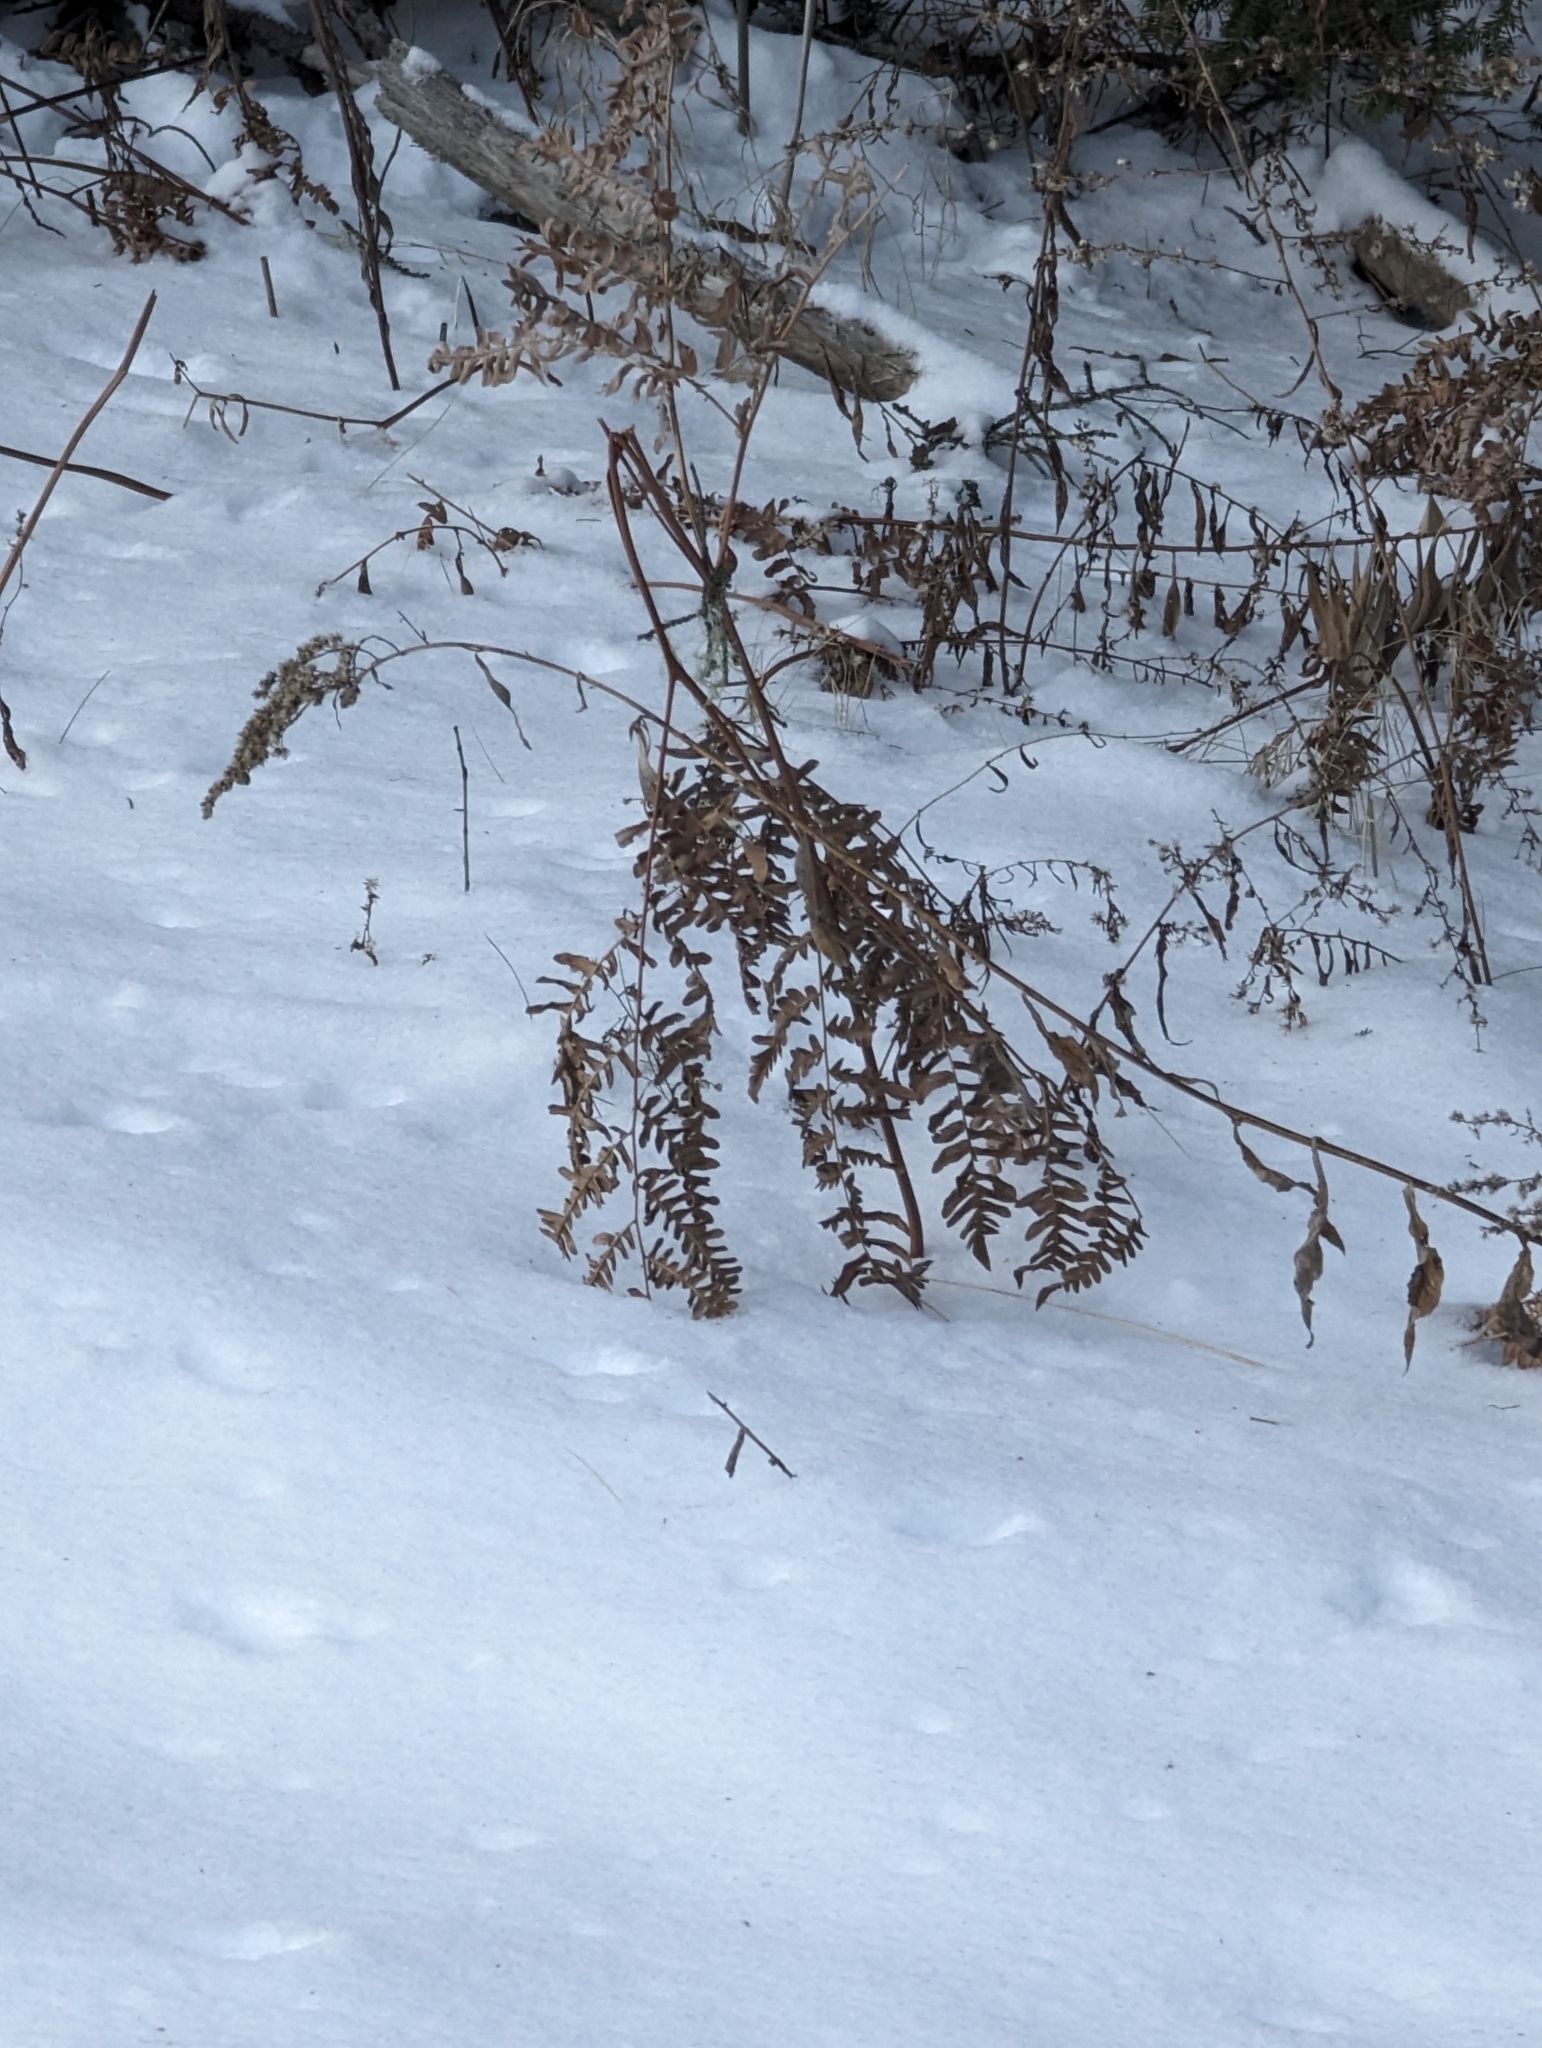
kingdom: Plantae
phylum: Tracheophyta
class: Polypodiopsida
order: Polypodiales
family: Dennstaedtiaceae
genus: Pteridium
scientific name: Pteridium aquilinum
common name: Bracken
